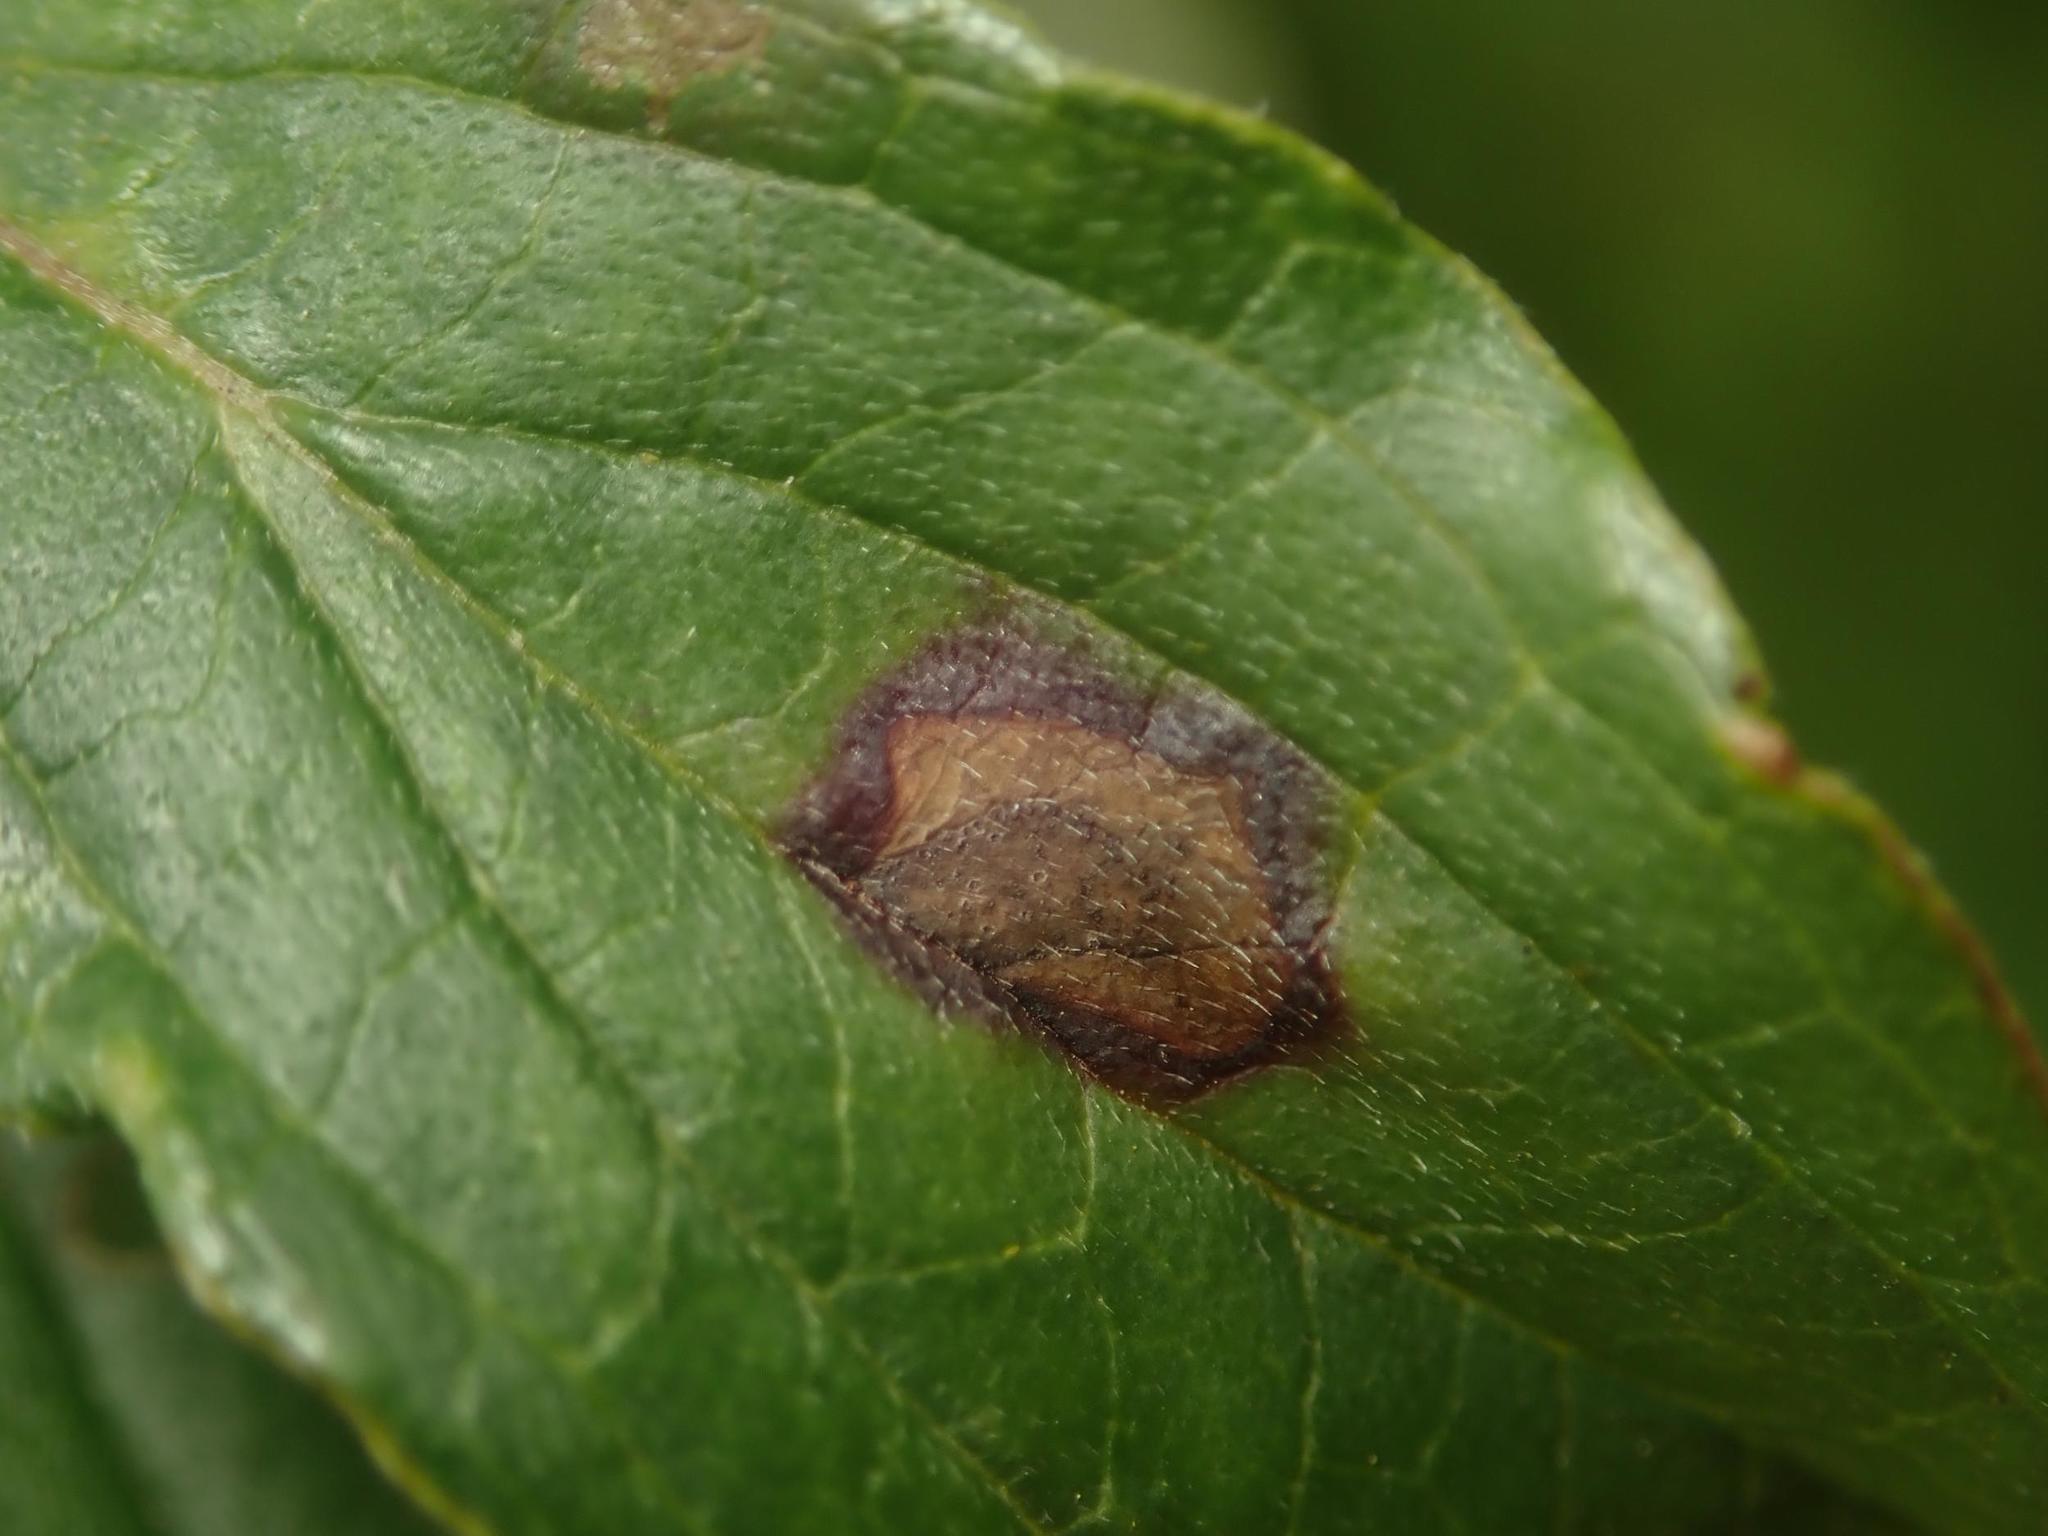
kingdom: Fungi
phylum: Ascomycota
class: Dothideomycetes
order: Mycosphaerellales
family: Mycosphaerellaceae
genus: Sphaerulina
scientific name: Sphaerulina cornicola
